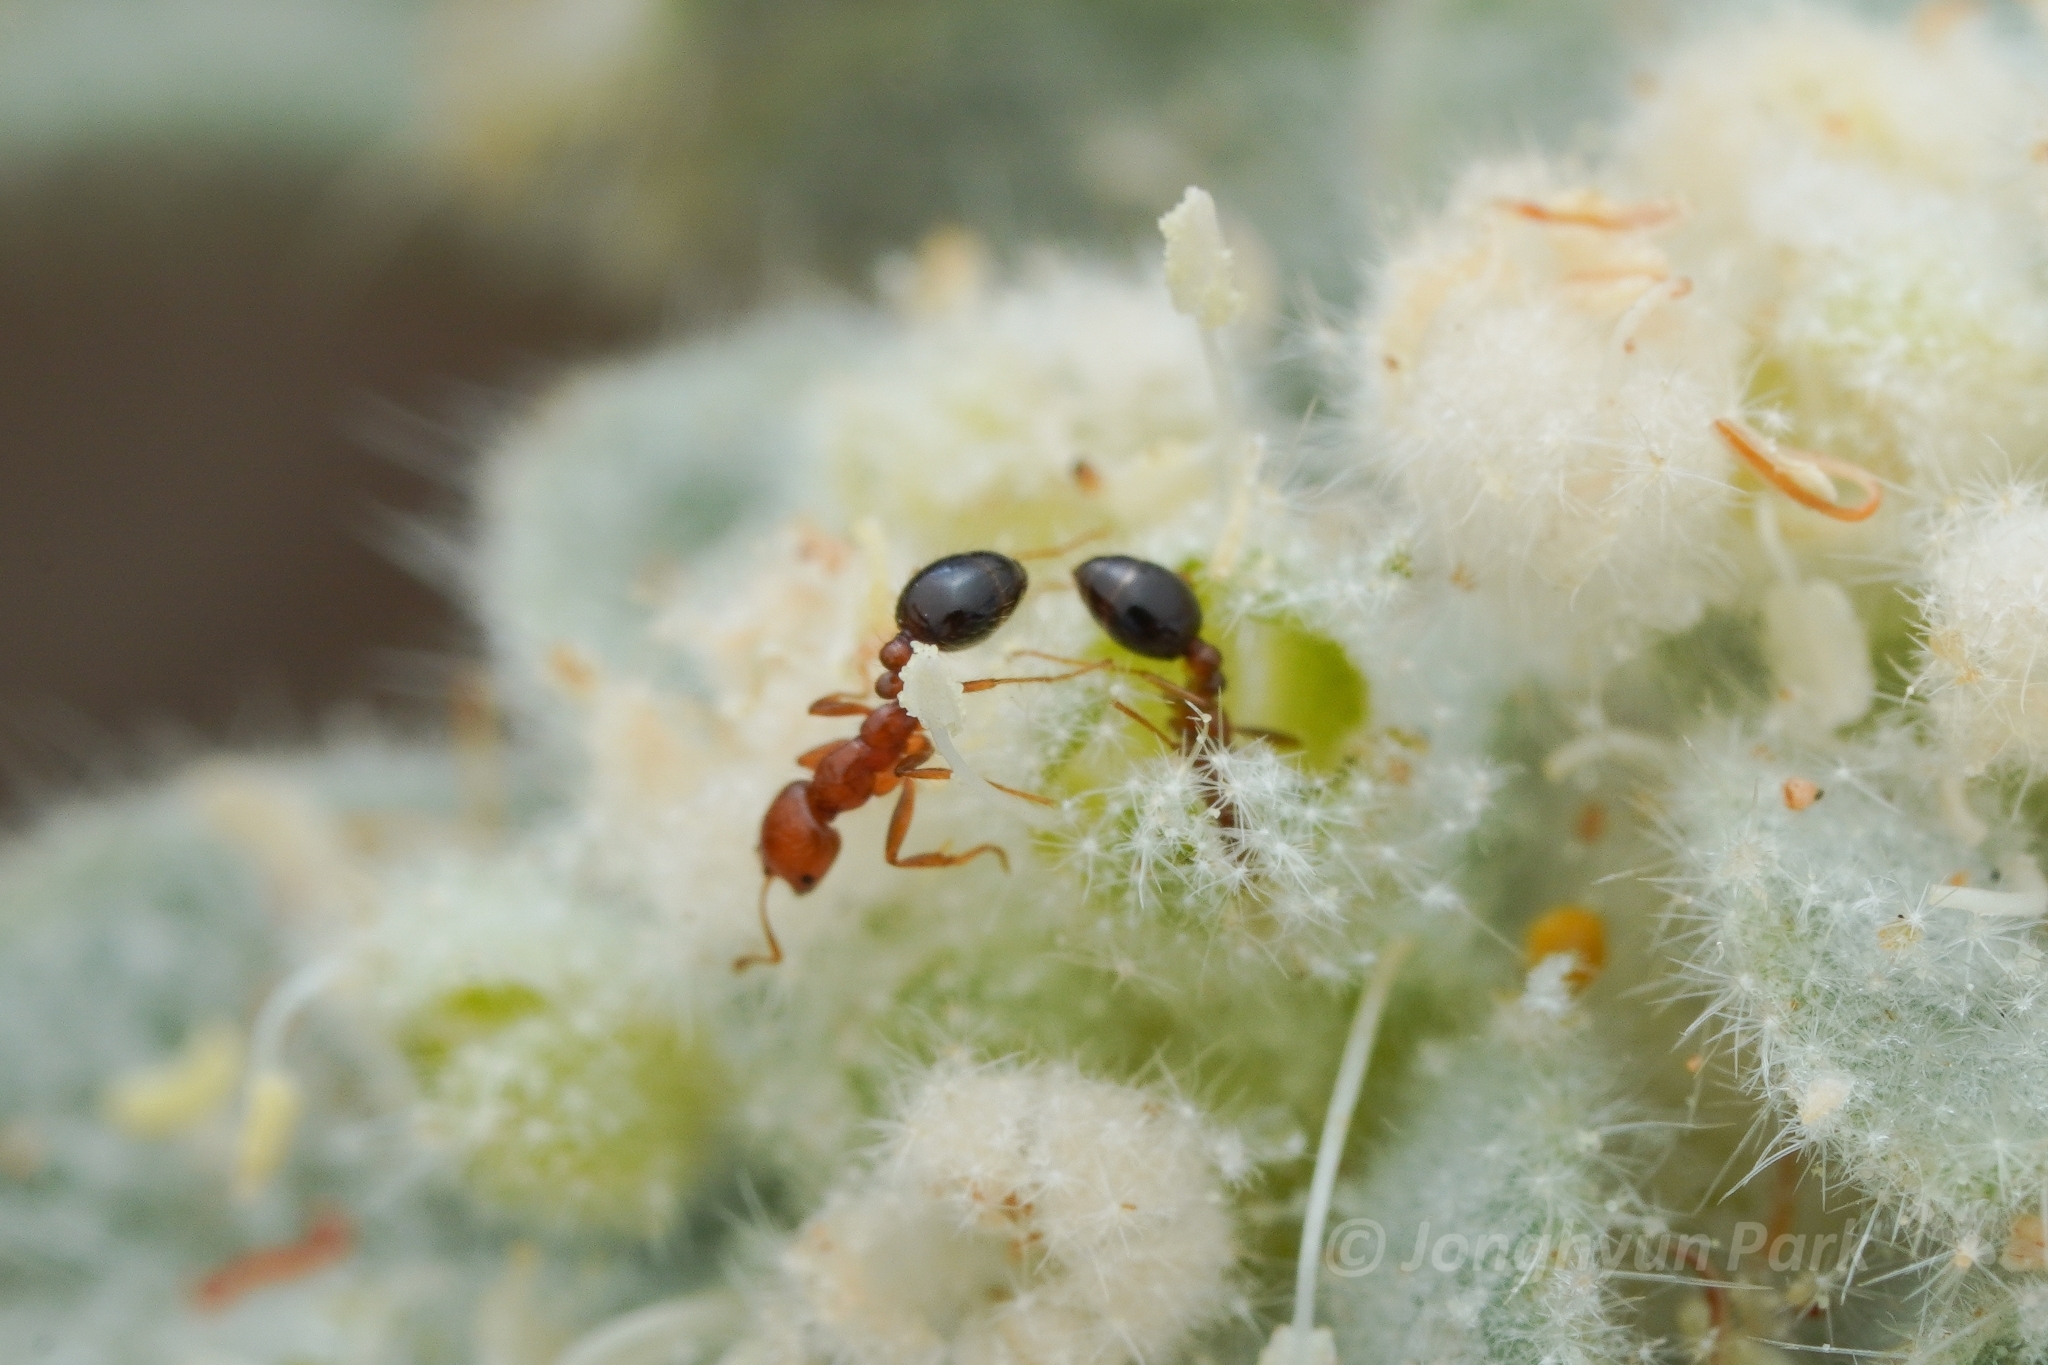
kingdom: Animalia
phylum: Arthropoda
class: Insecta
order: Hymenoptera
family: Formicidae
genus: Solenopsis
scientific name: Solenopsis xyloni
